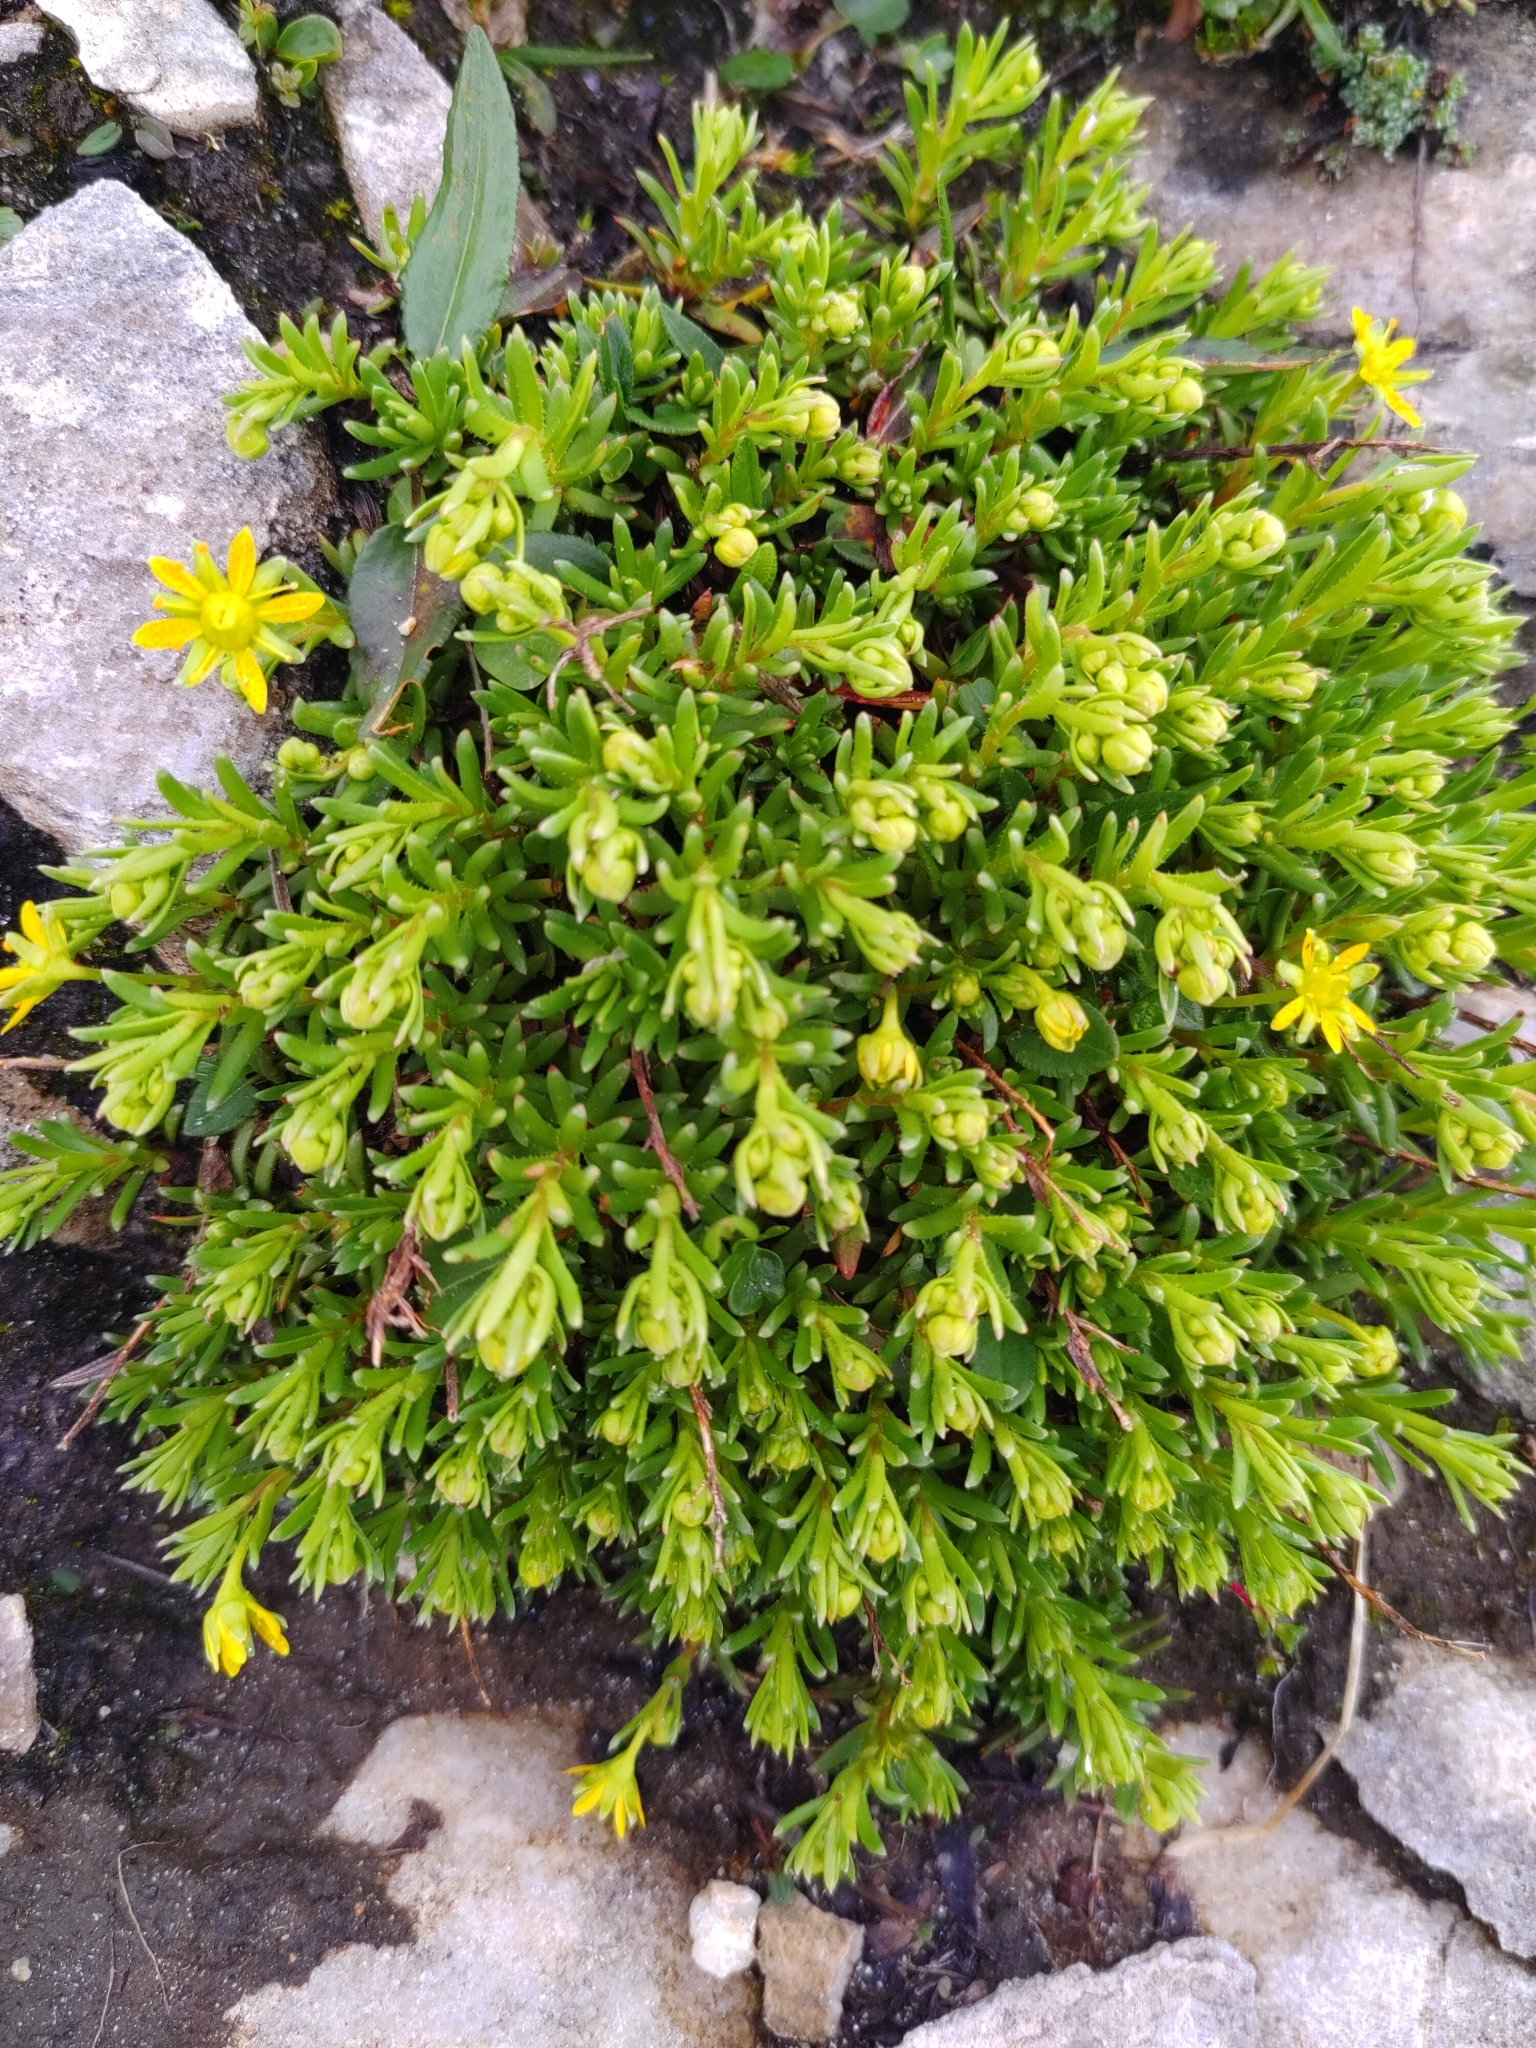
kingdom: Plantae
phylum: Tracheophyta
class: Magnoliopsida
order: Saxifragales
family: Saxifragaceae
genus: Saxifraga
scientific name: Saxifraga aizoides
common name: Yellow mountain saxifrage
